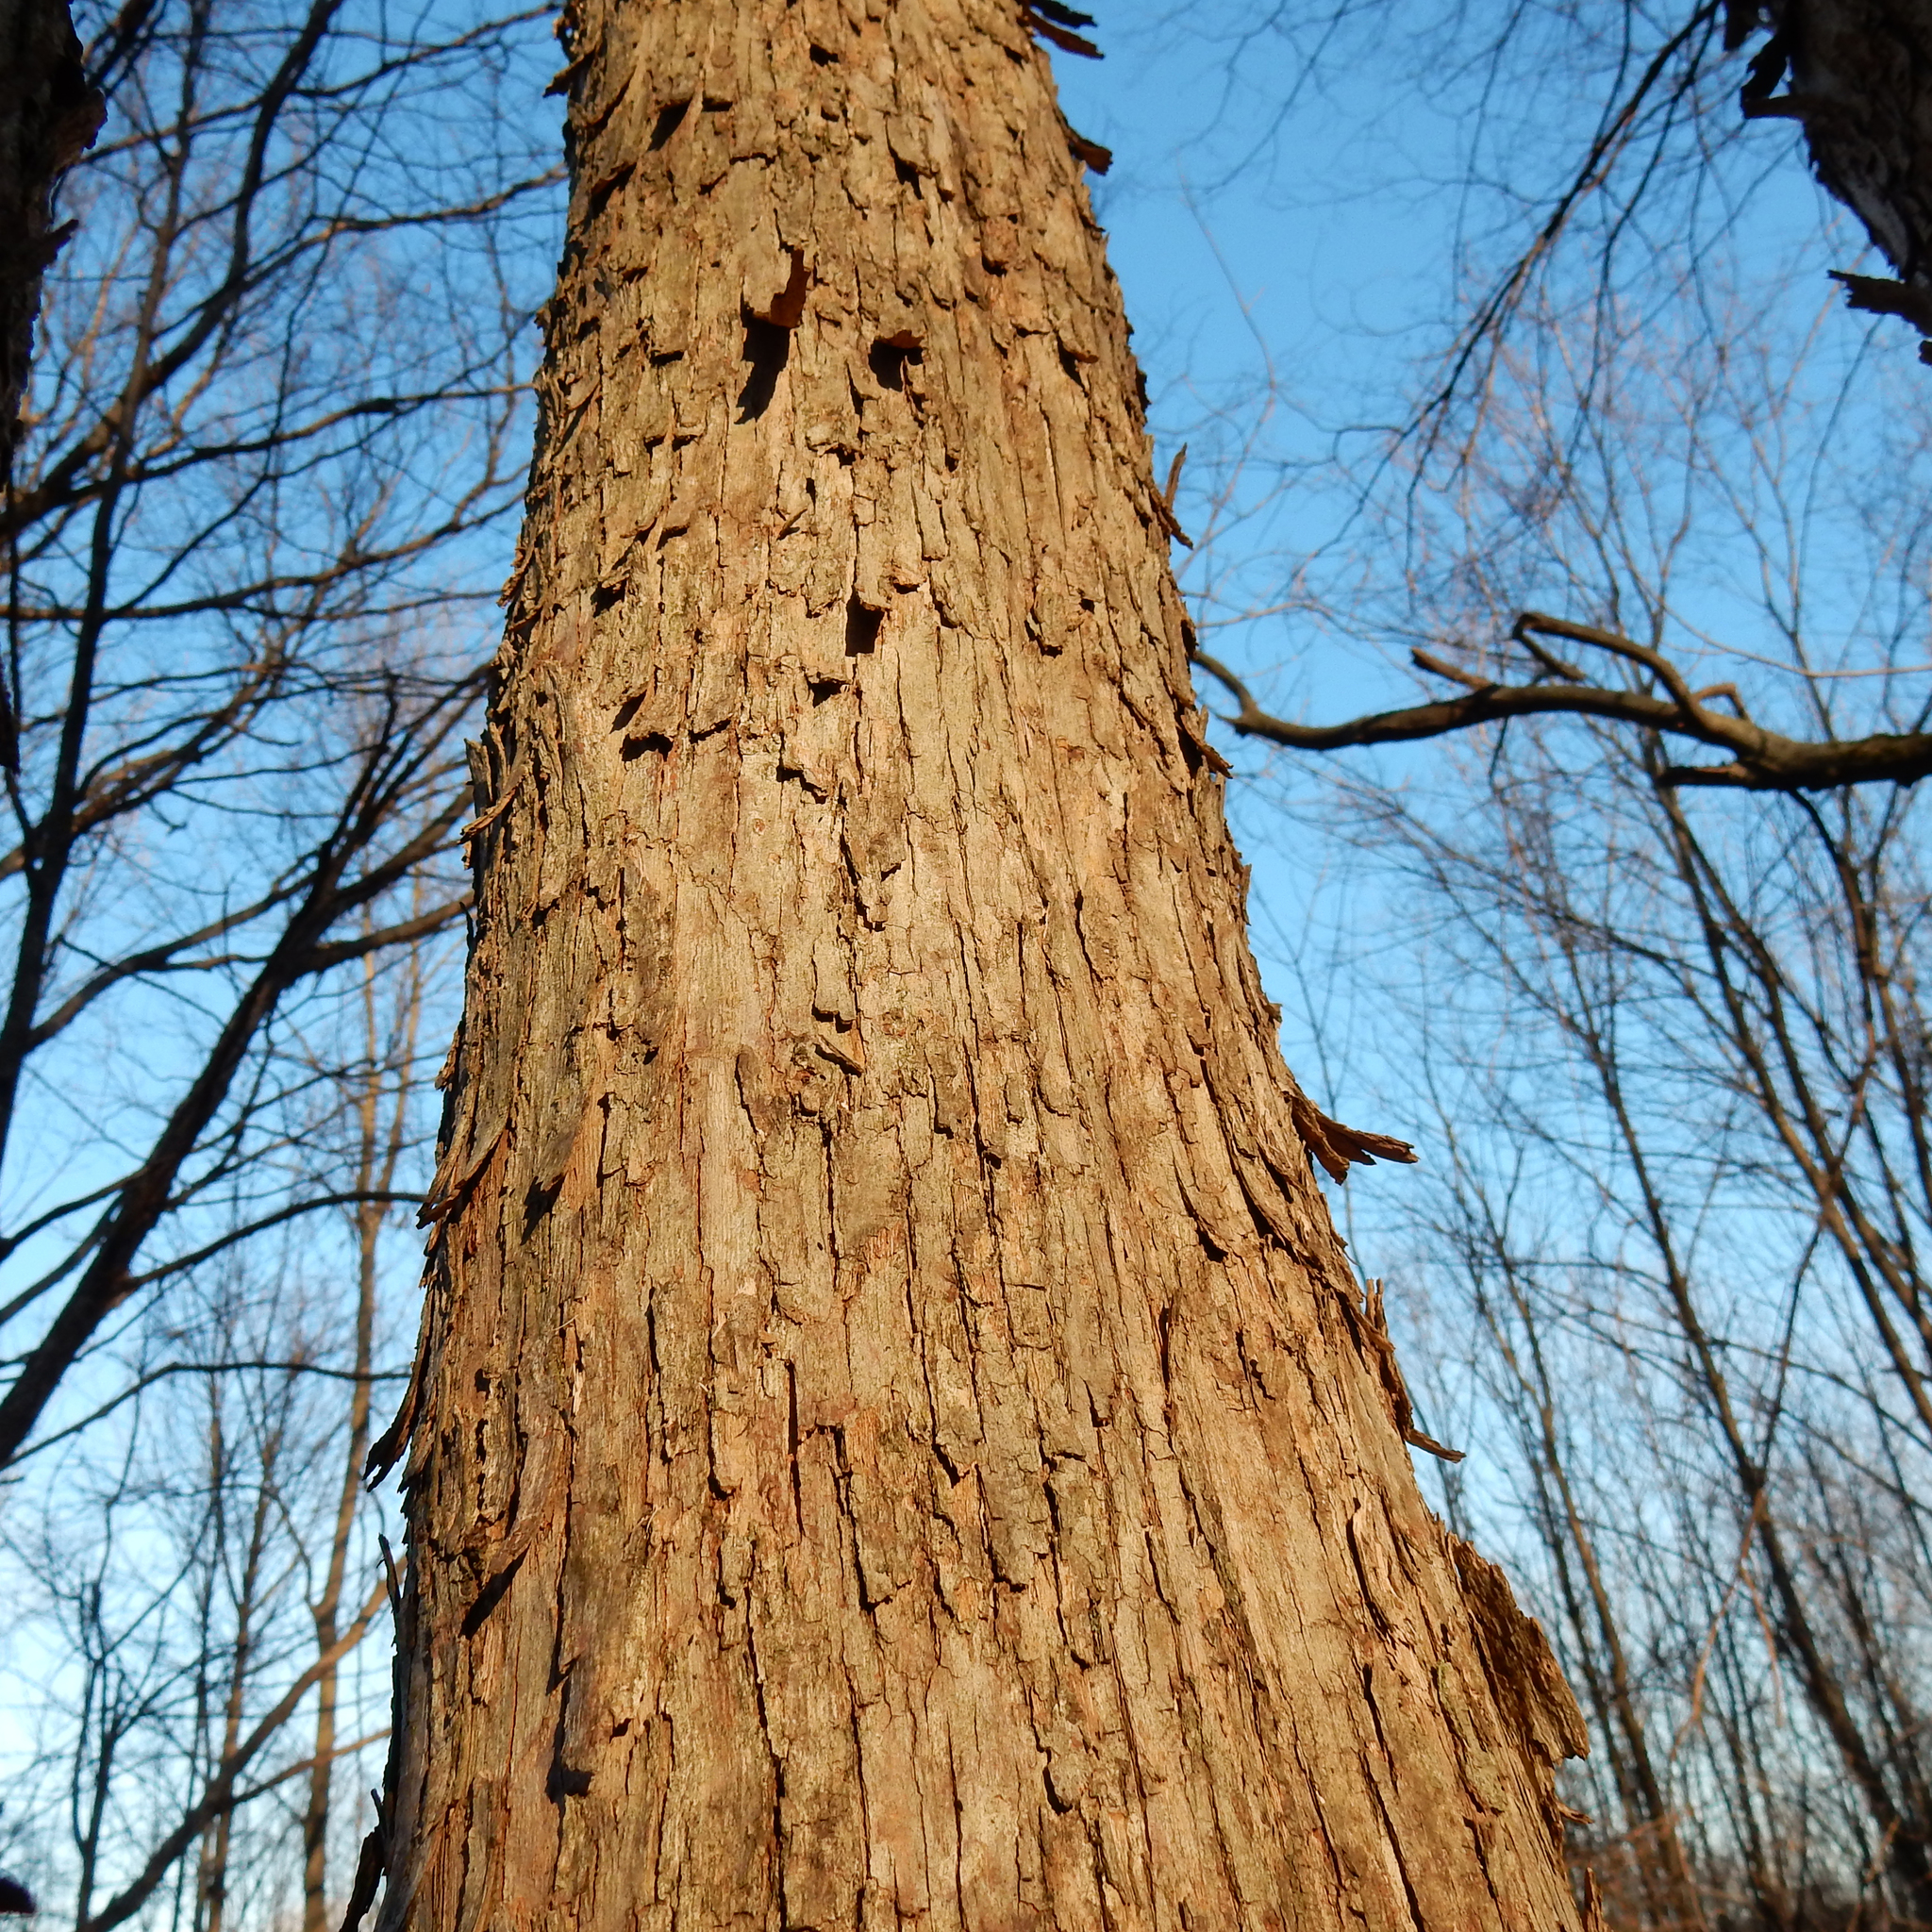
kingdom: Plantae
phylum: Tracheophyta
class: Magnoliopsida
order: Fagales
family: Betulaceae
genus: Ostrya
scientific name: Ostrya virginiana
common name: Ironwood
